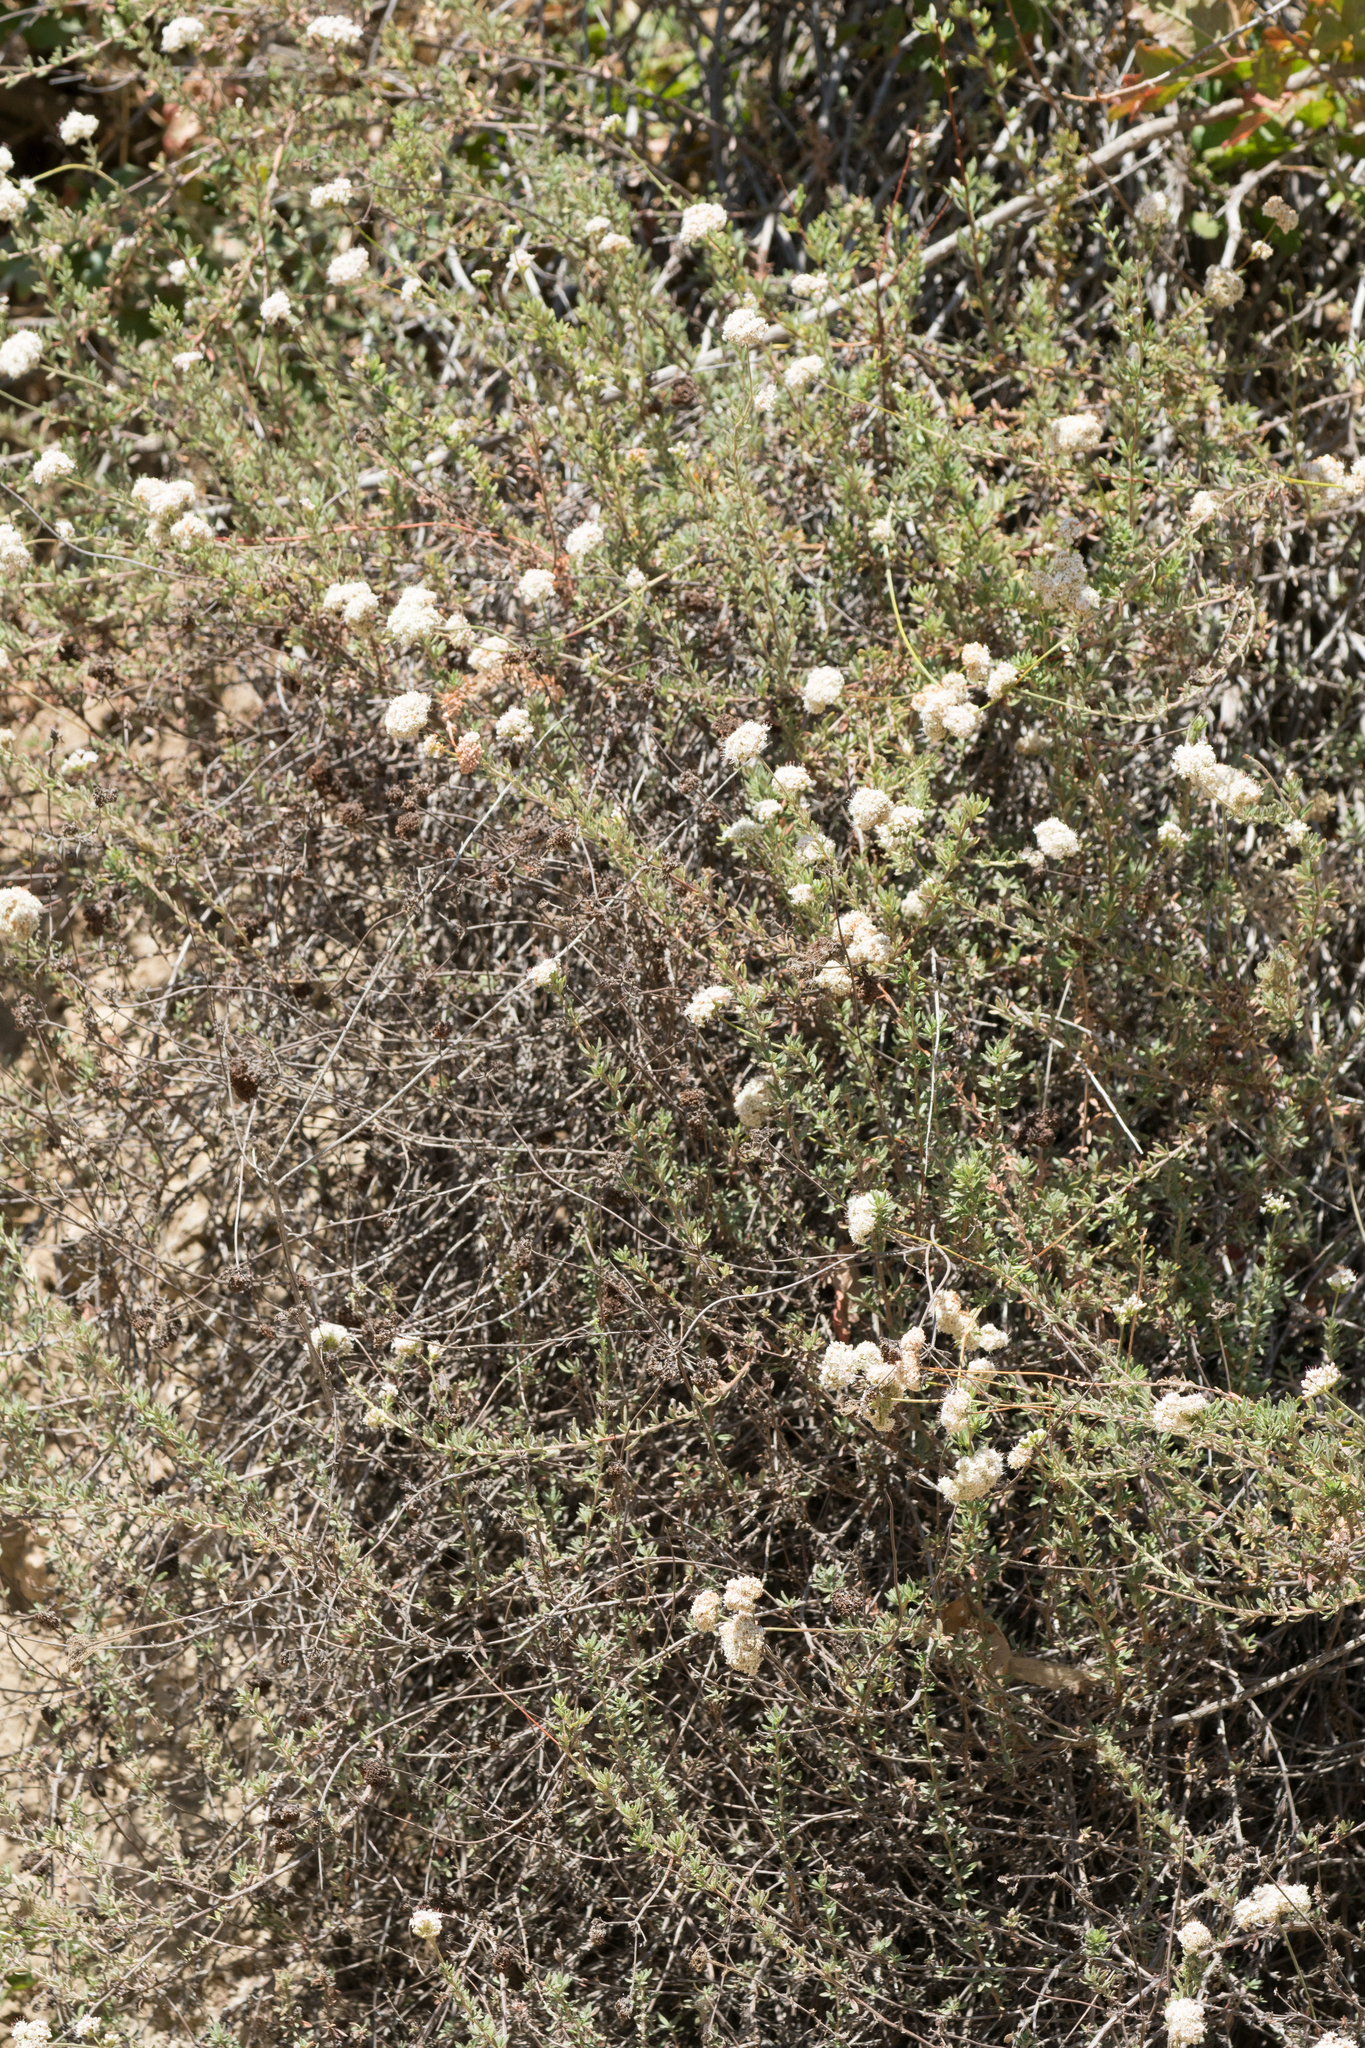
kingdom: Plantae
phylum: Tracheophyta
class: Magnoliopsida
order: Caryophyllales
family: Polygonaceae
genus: Eriogonum
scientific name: Eriogonum fasciculatum
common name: California wild buckwheat
